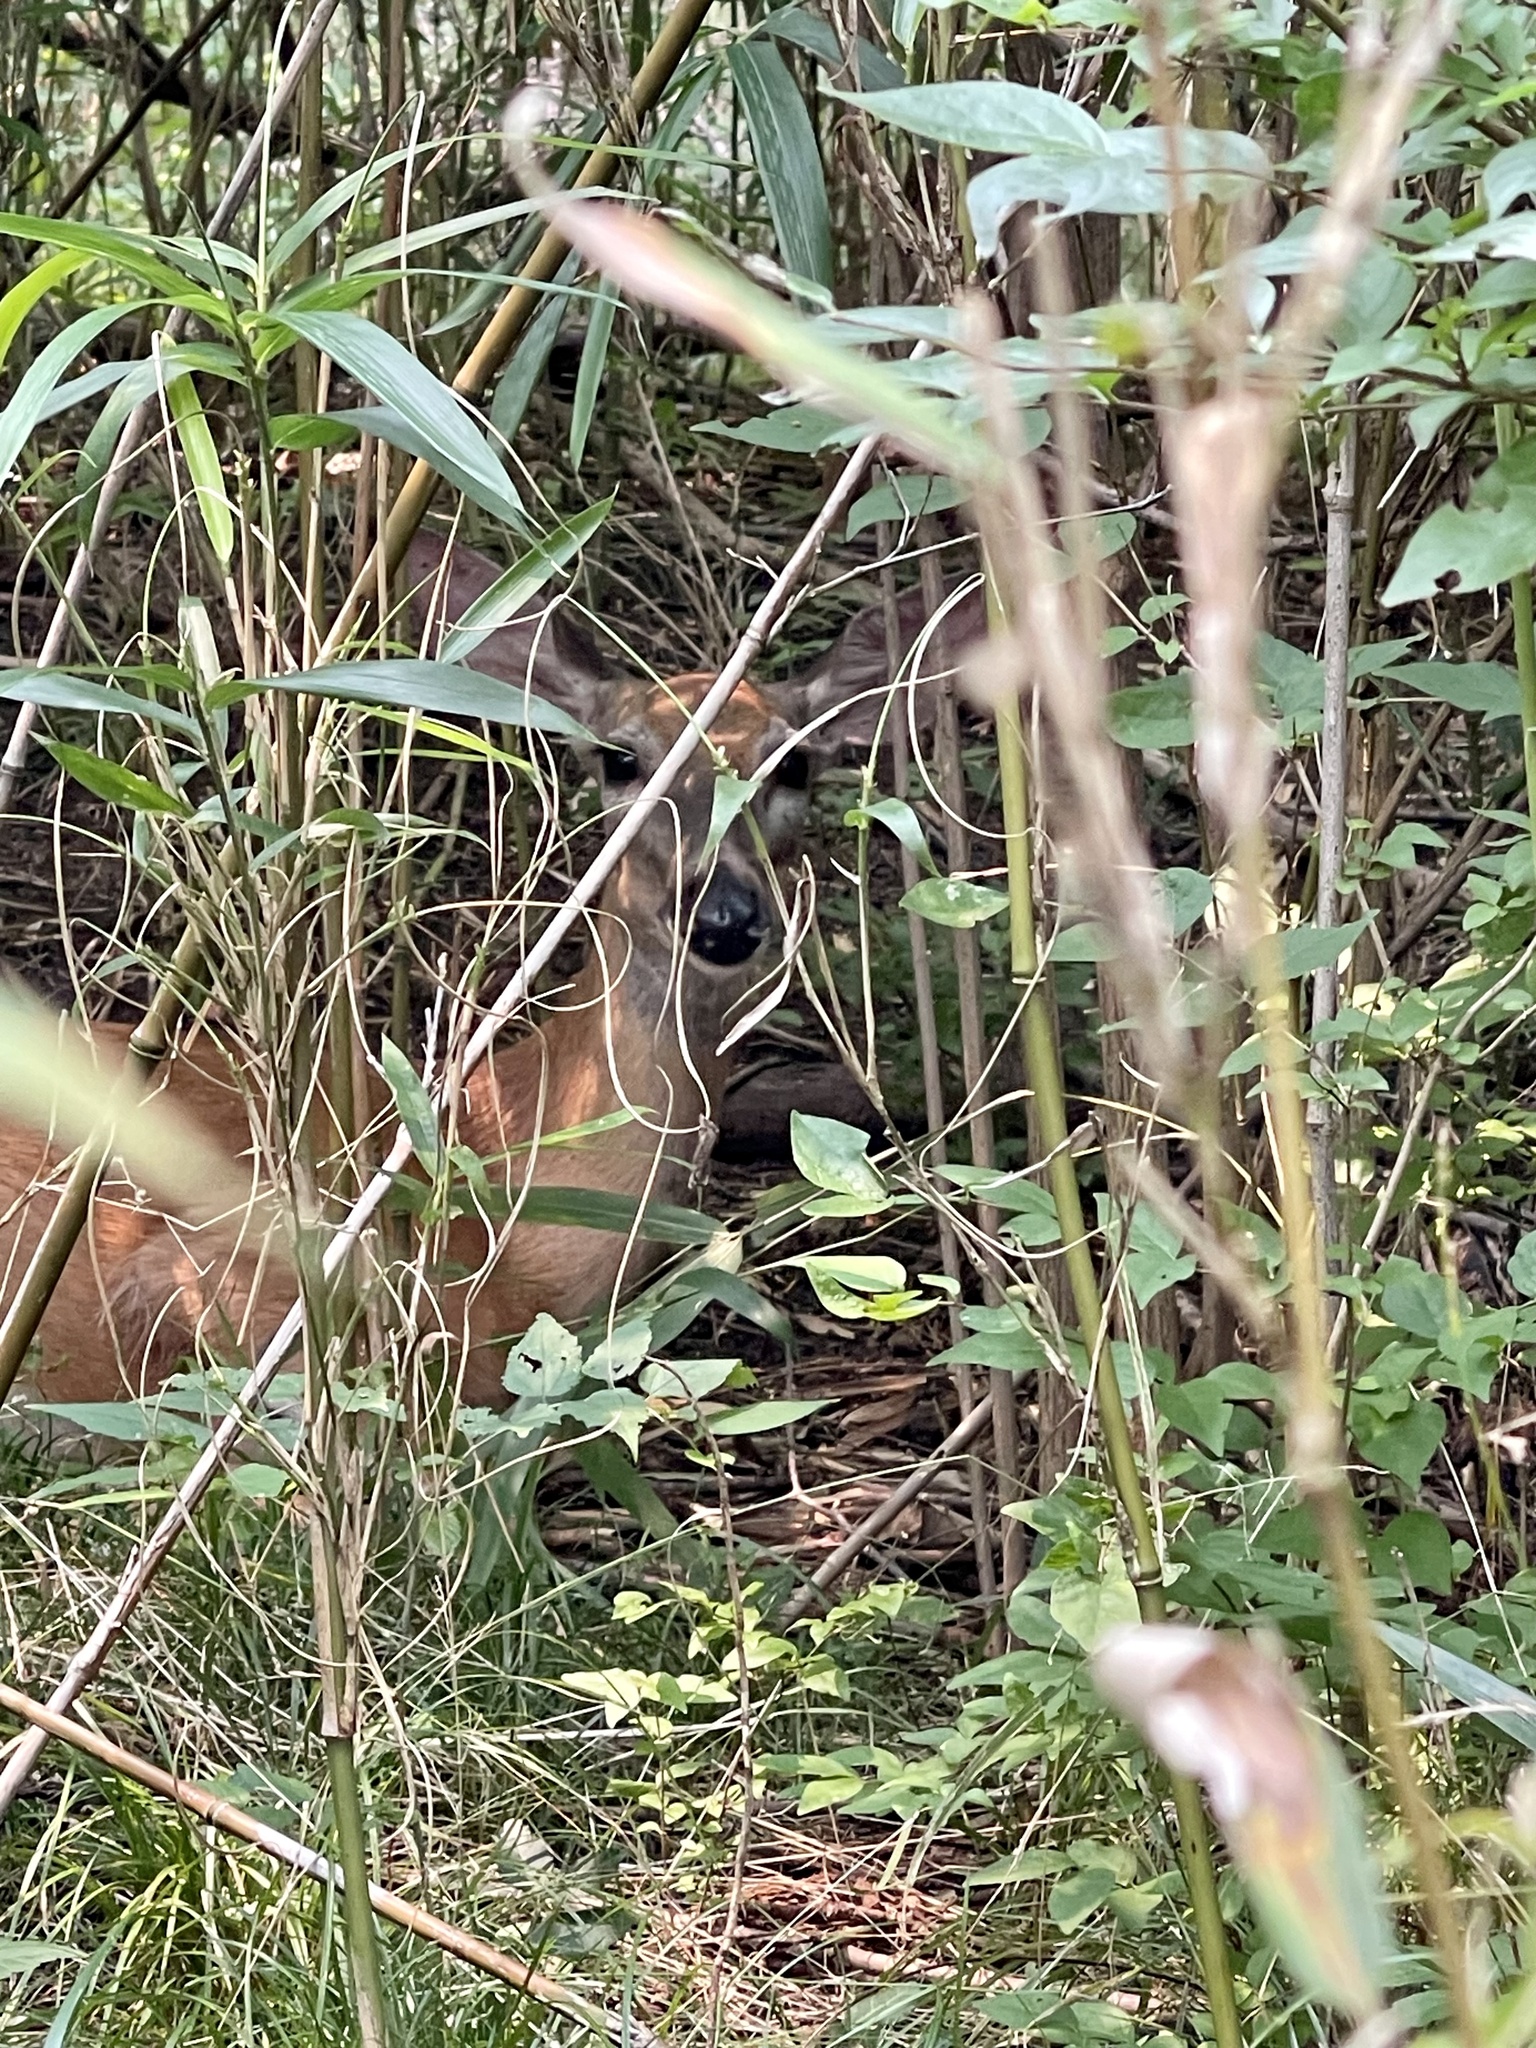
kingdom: Animalia
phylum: Chordata
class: Mammalia
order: Artiodactyla
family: Cervidae
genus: Odocoileus
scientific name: Odocoileus virginianus
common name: White-tailed deer
